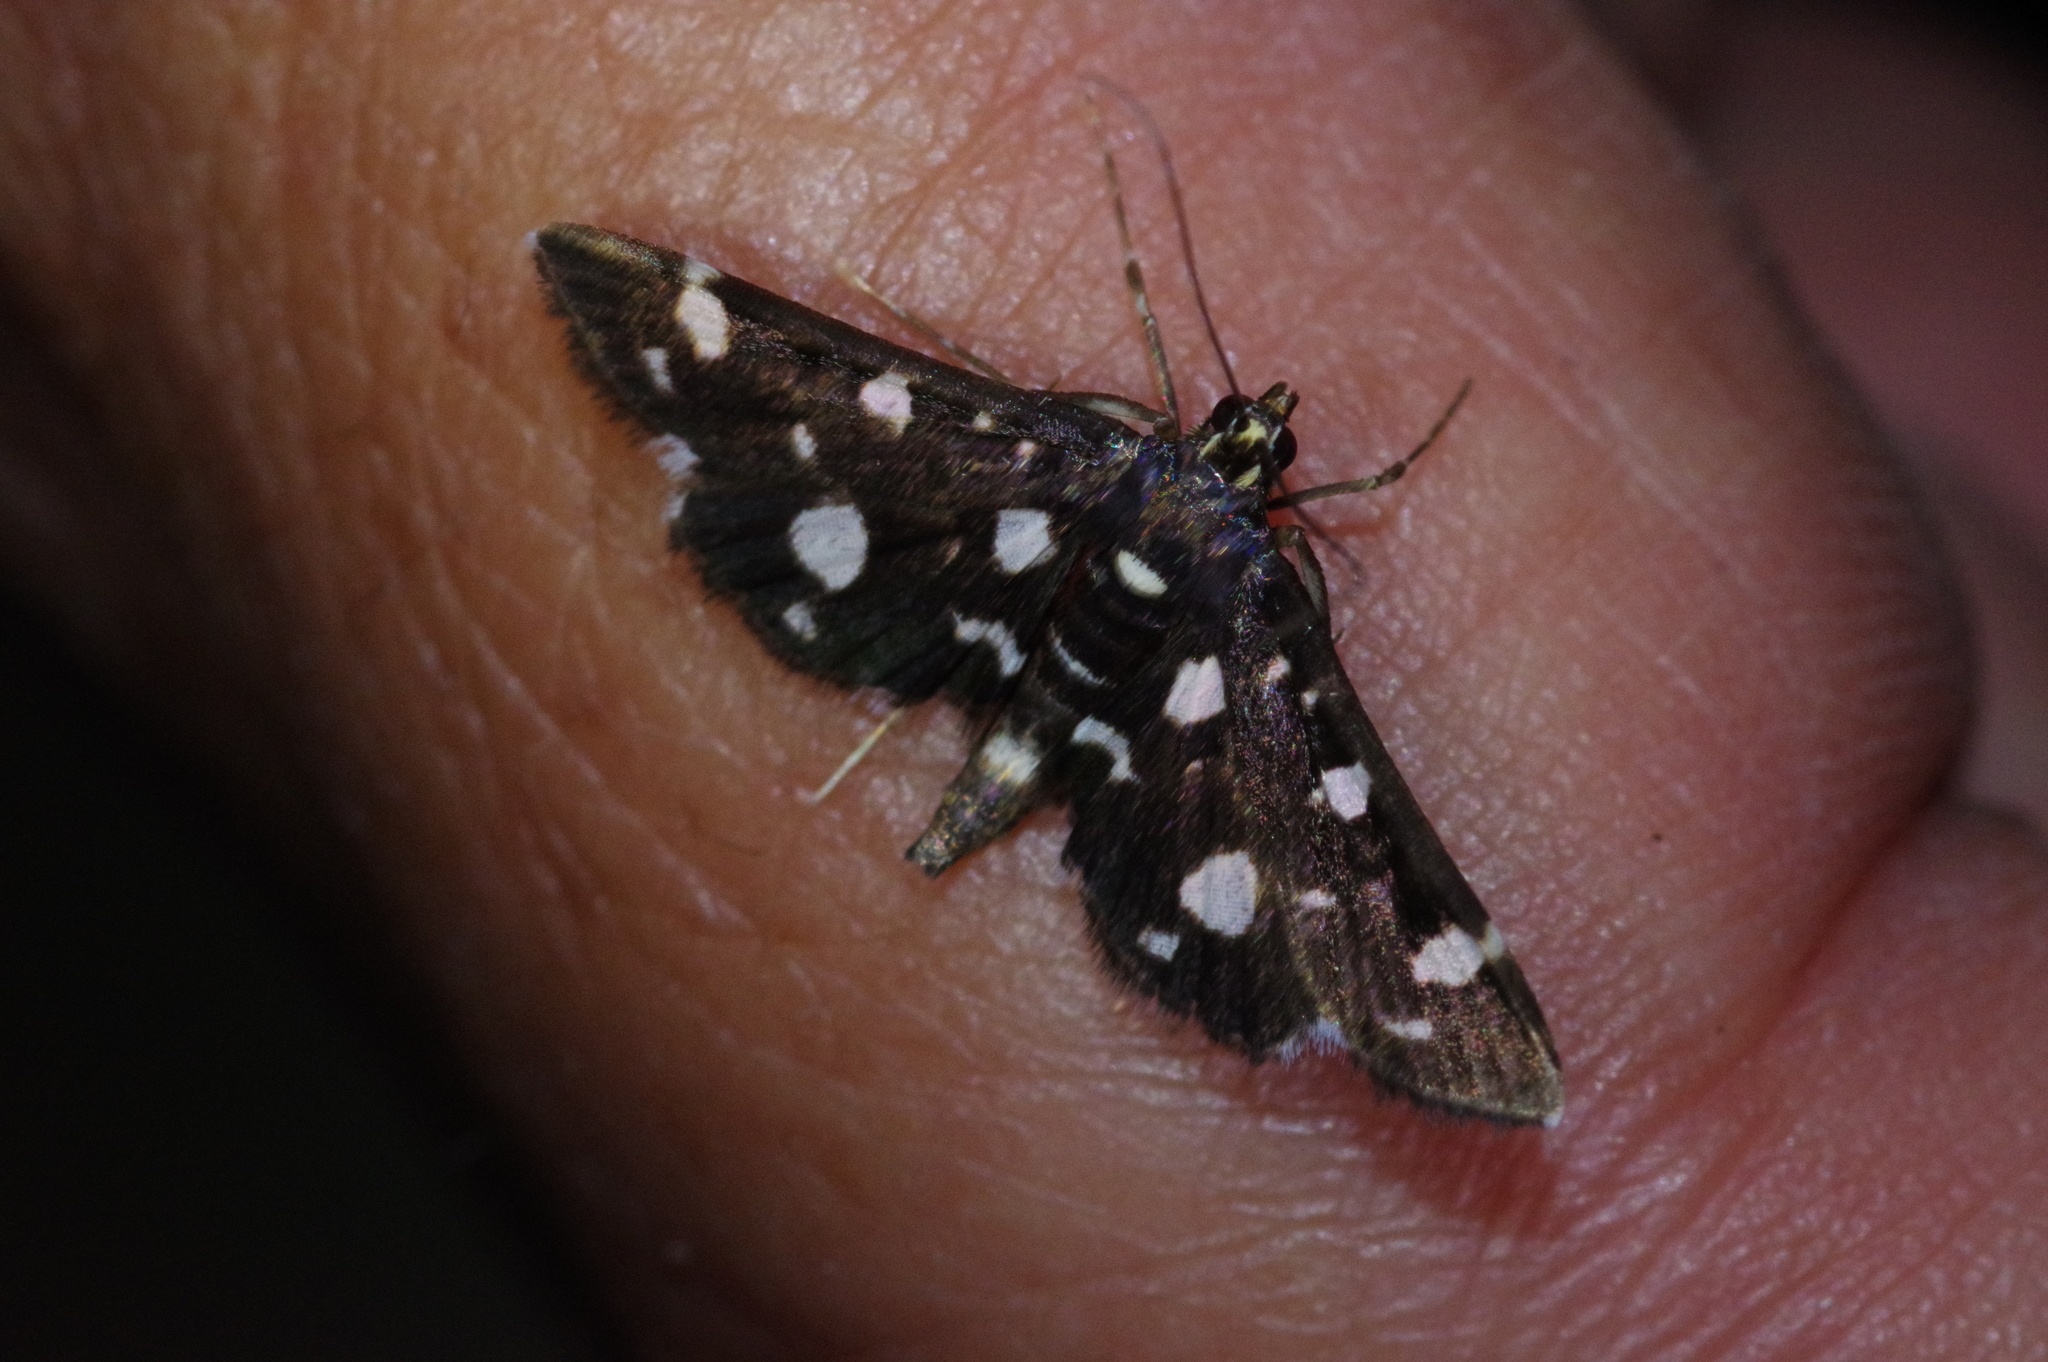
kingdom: Animalia
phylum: Arthropoda
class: Insecta
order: Lepidoptera
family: Crambidae
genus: Bocchoris
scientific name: Bocchoris inspersalis
